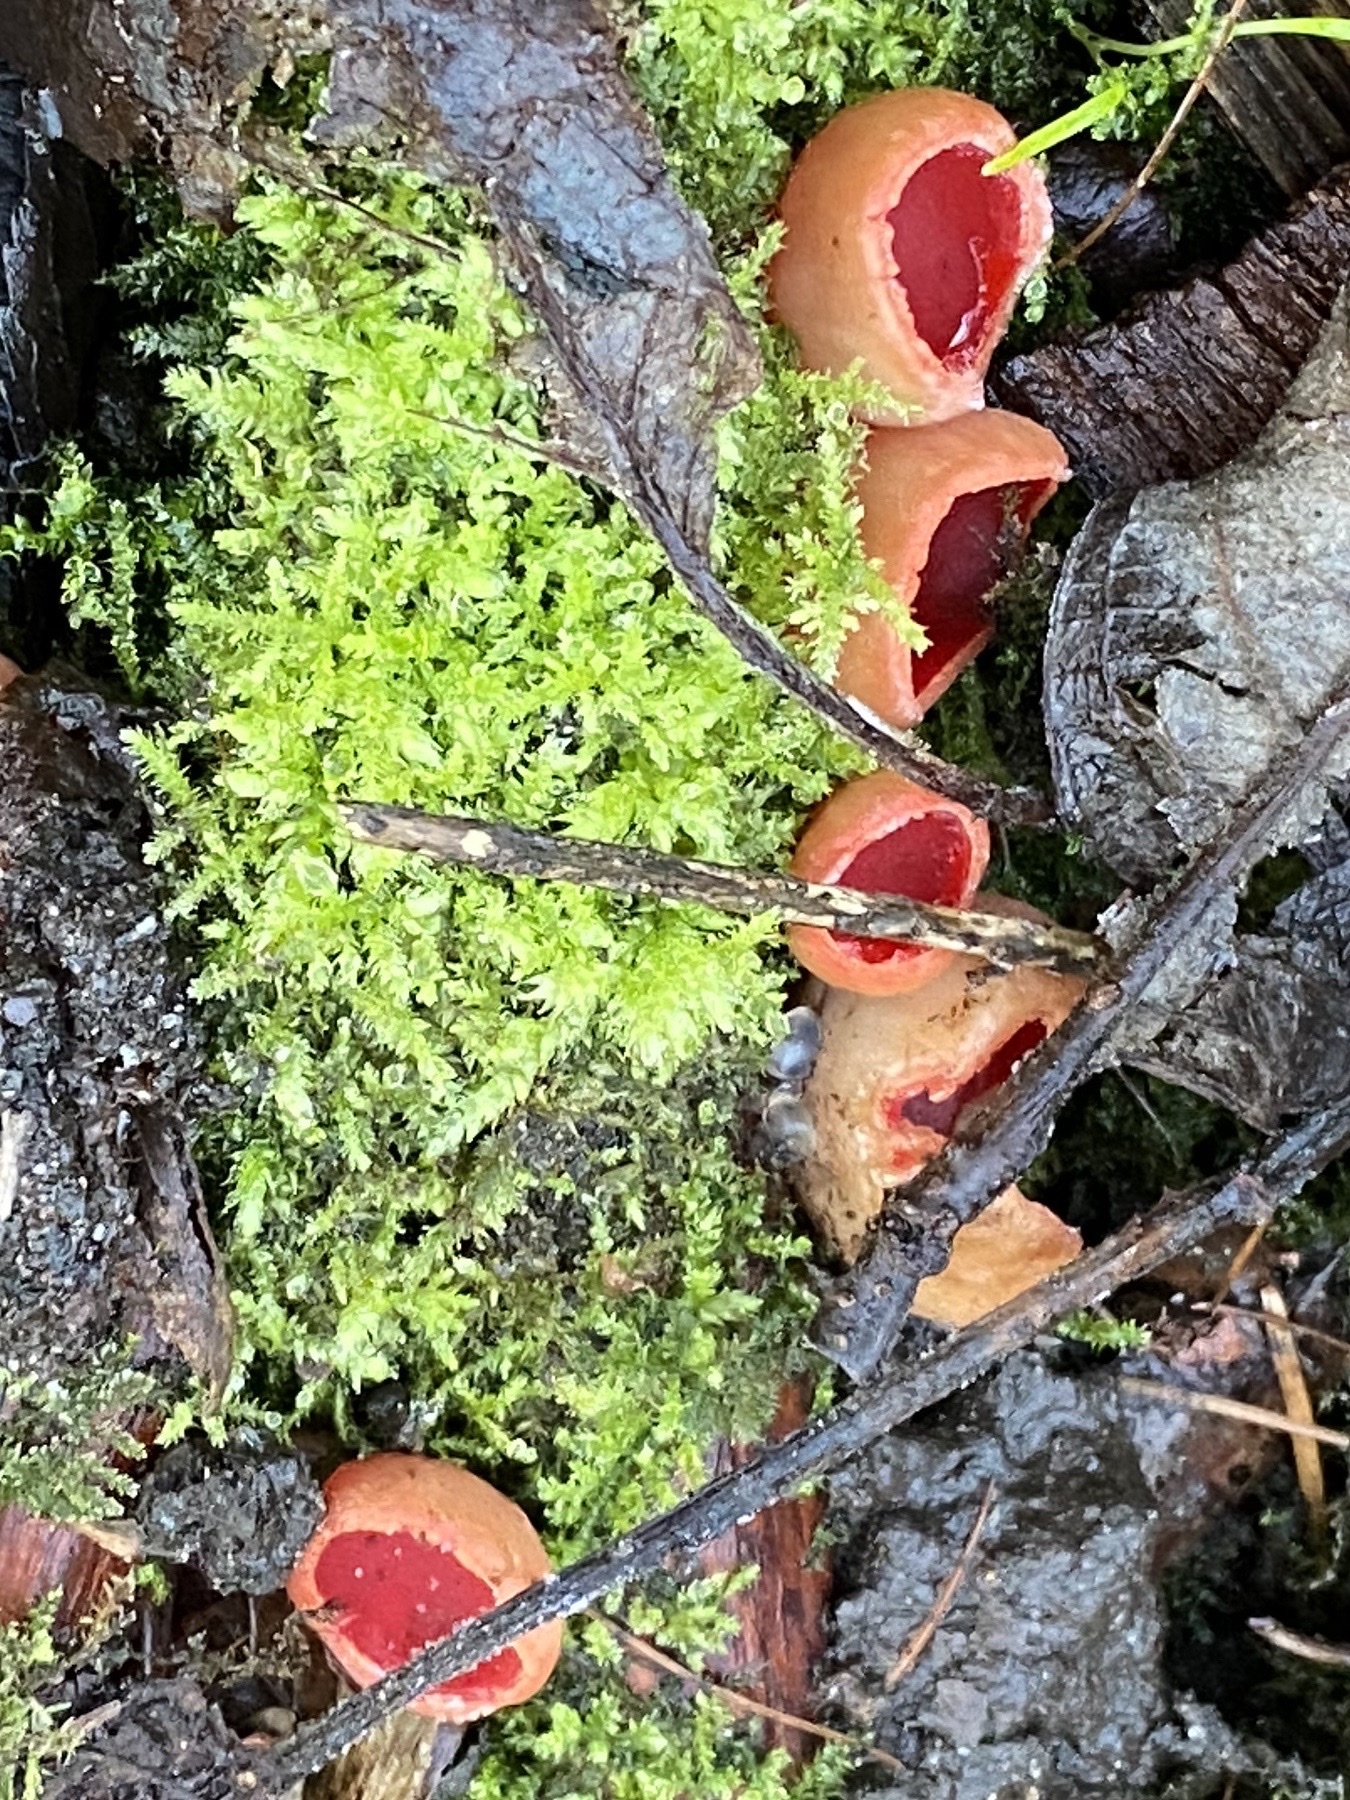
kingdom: Fungi
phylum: Ascomycota
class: Pezizomycetes
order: Pezizales
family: Sarcoscyphaceae
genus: Sarcoscypha
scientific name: Sarcoscypha
